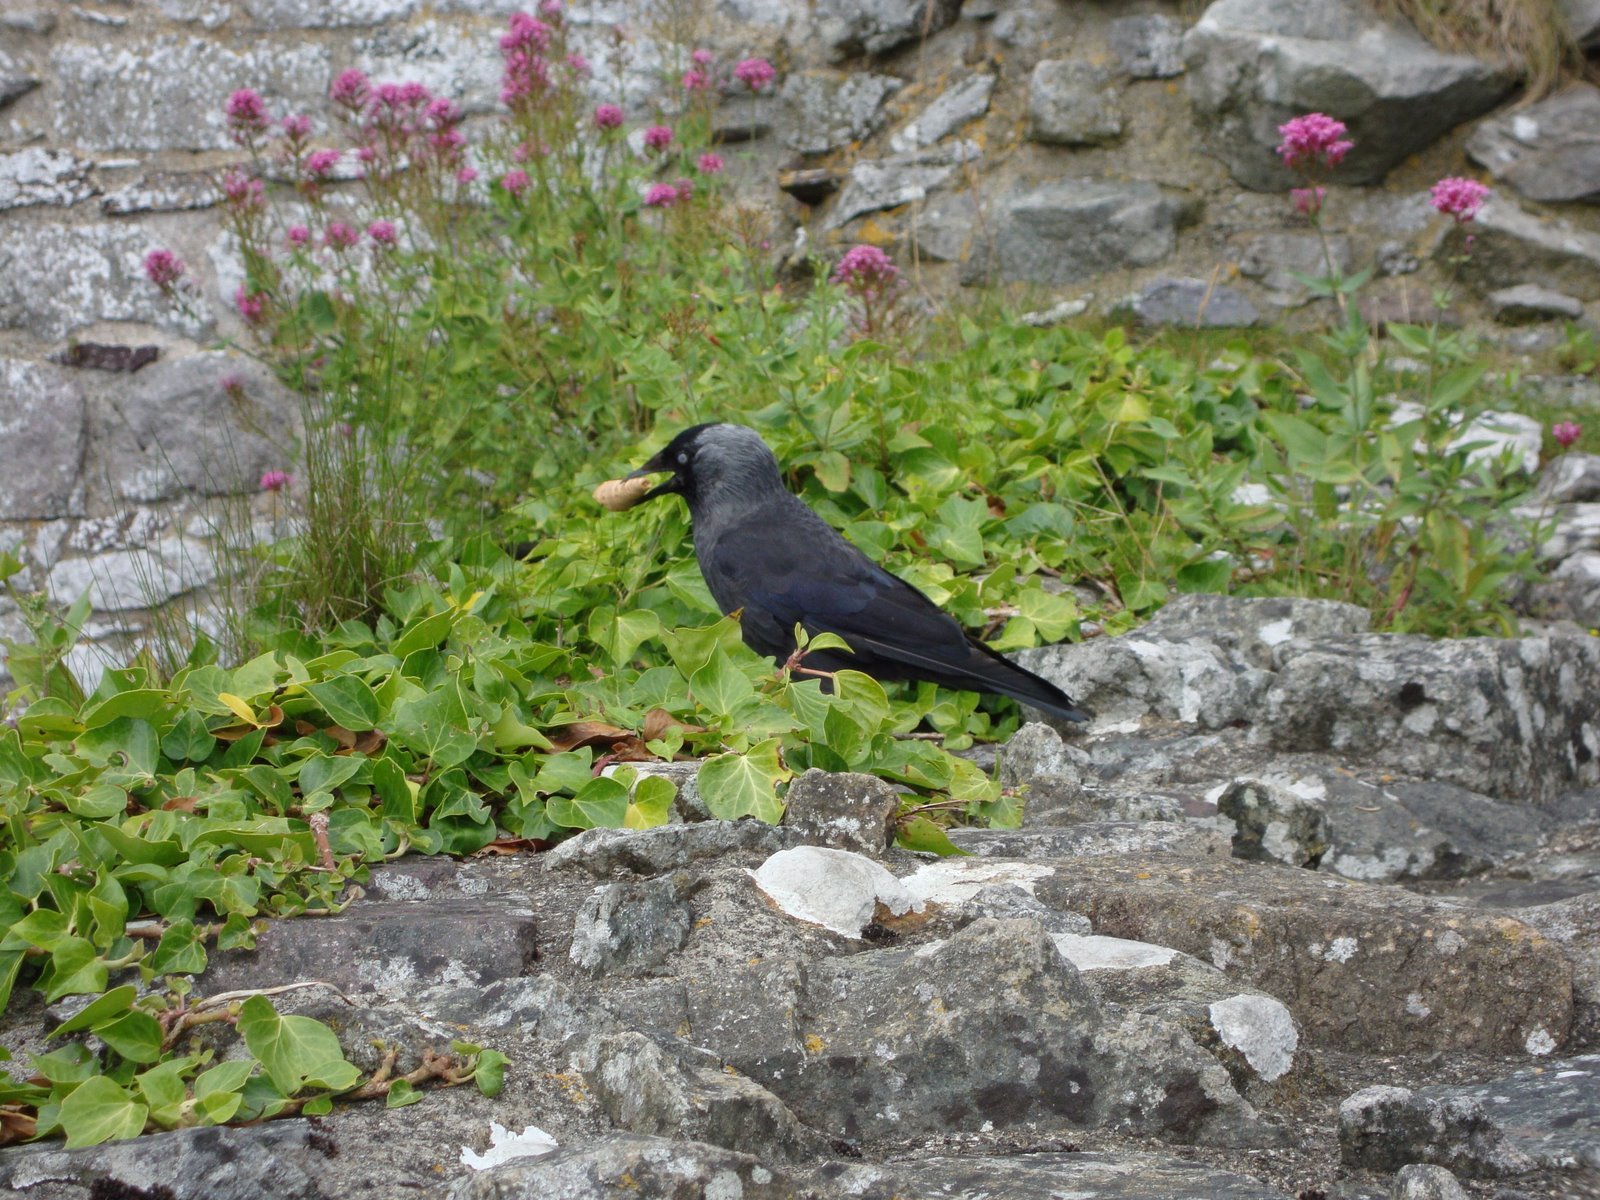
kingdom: Animalia
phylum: Chordata
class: Aves
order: Passeriformes
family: Corvidae
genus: Coloeus
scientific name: Coloeus monedula
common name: Western jackdaw
